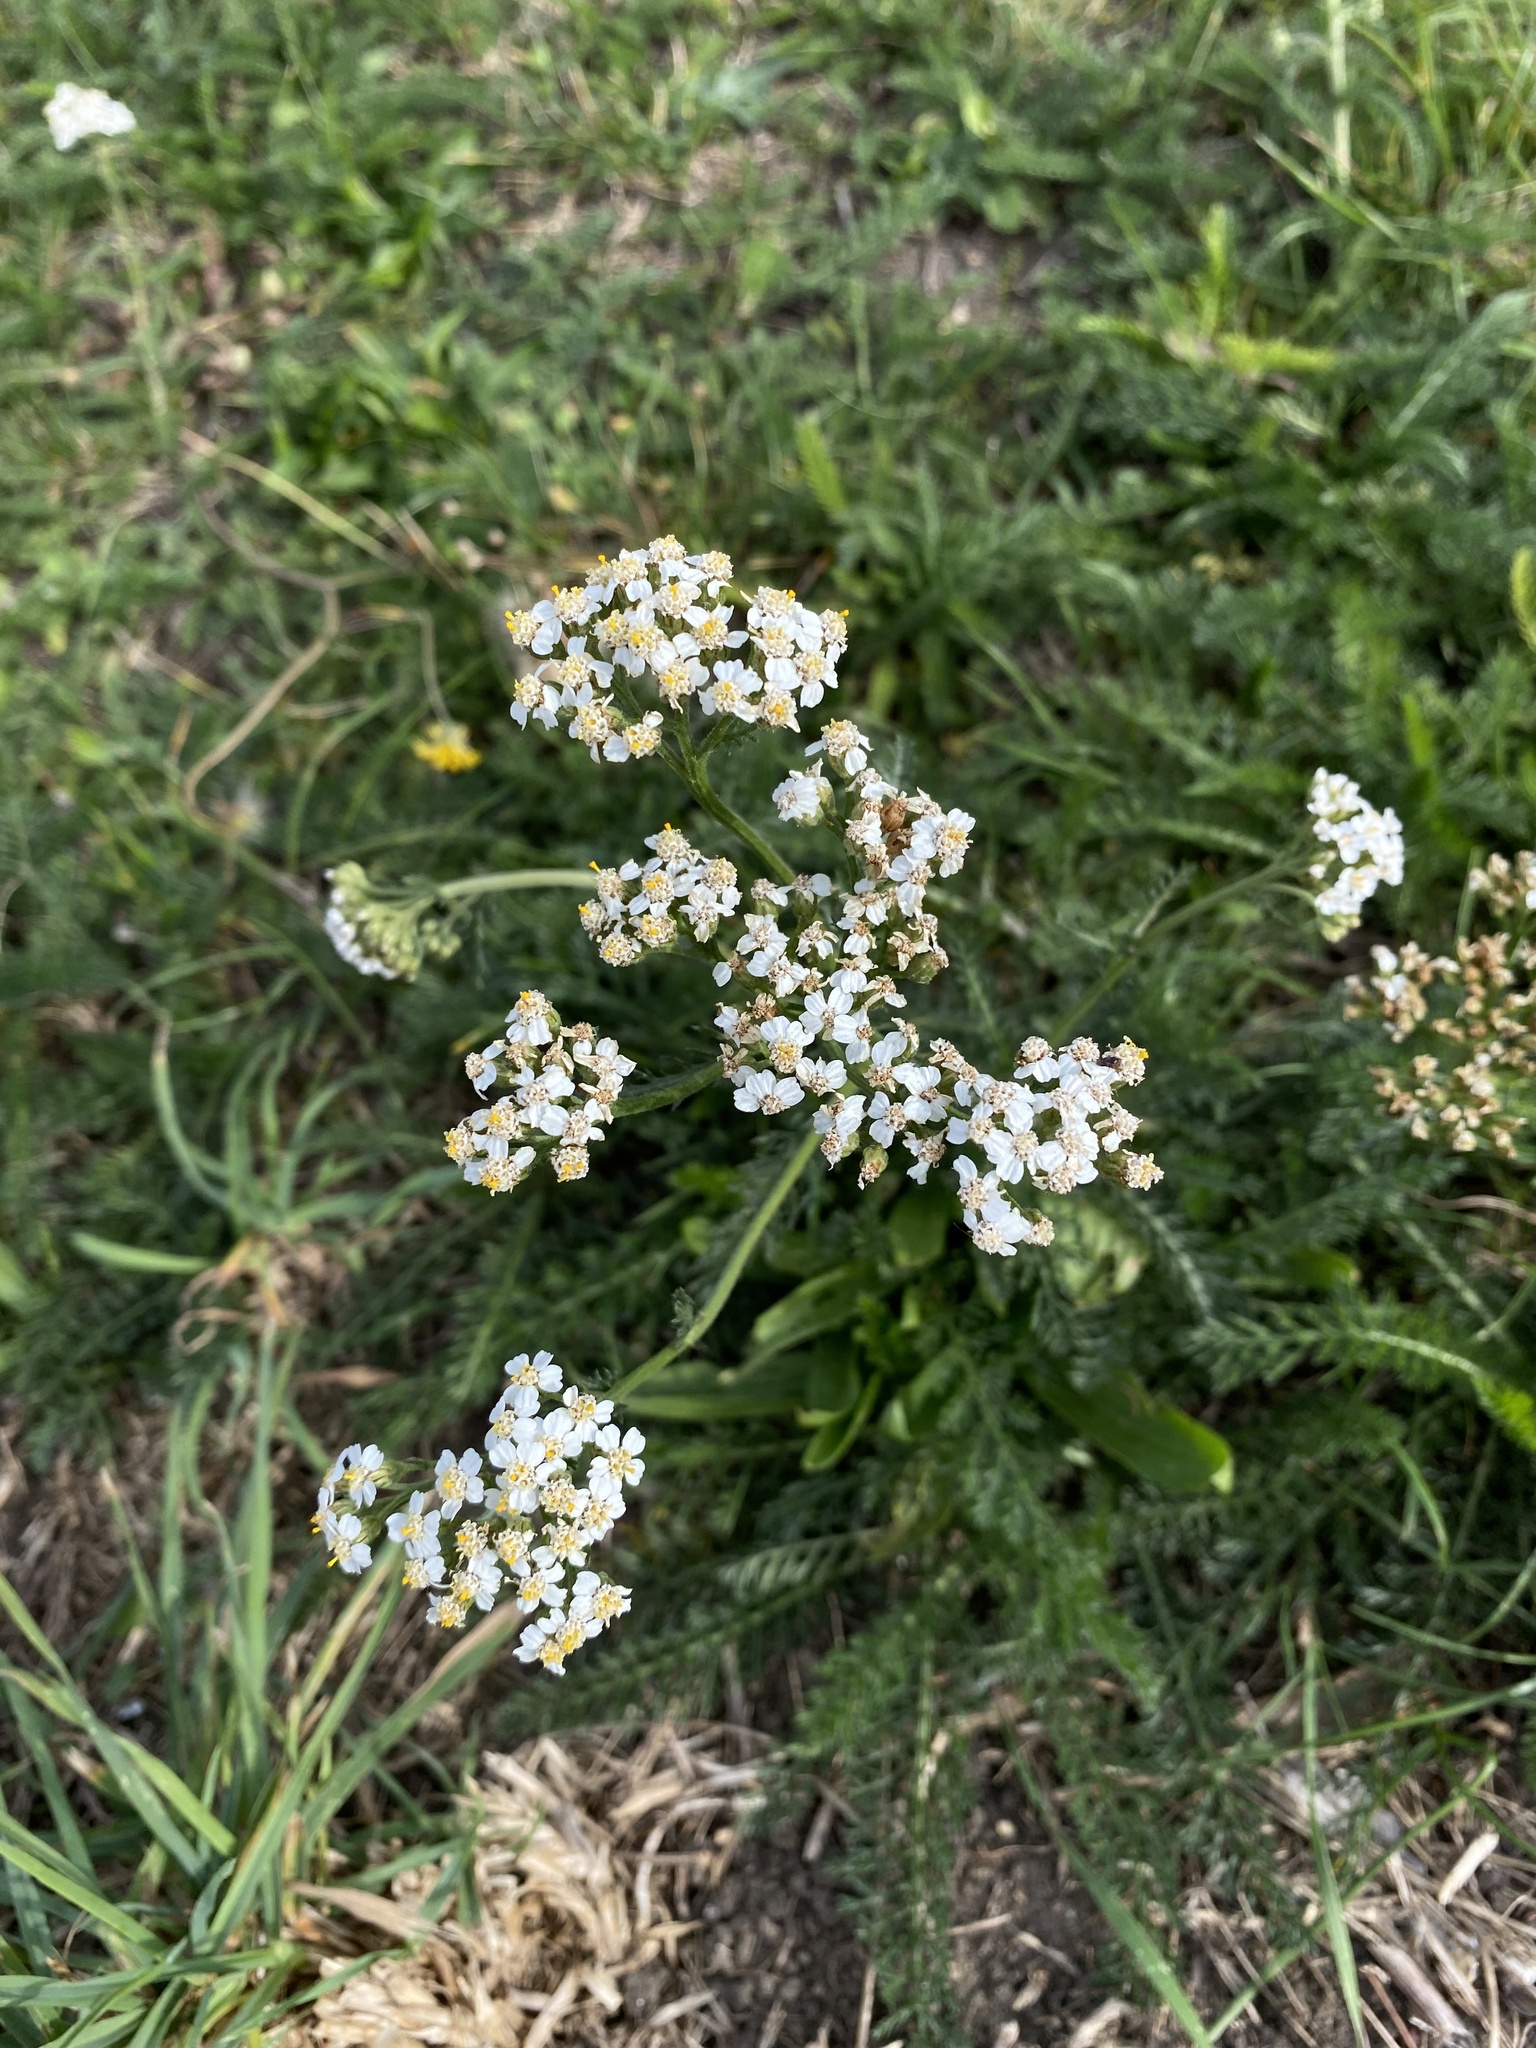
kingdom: Plantae
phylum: Tracheophyta
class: Magnoliopsida
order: Asterales
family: Asteraceae
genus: Achillea
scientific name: Achillea millefolium
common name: Yarrow
